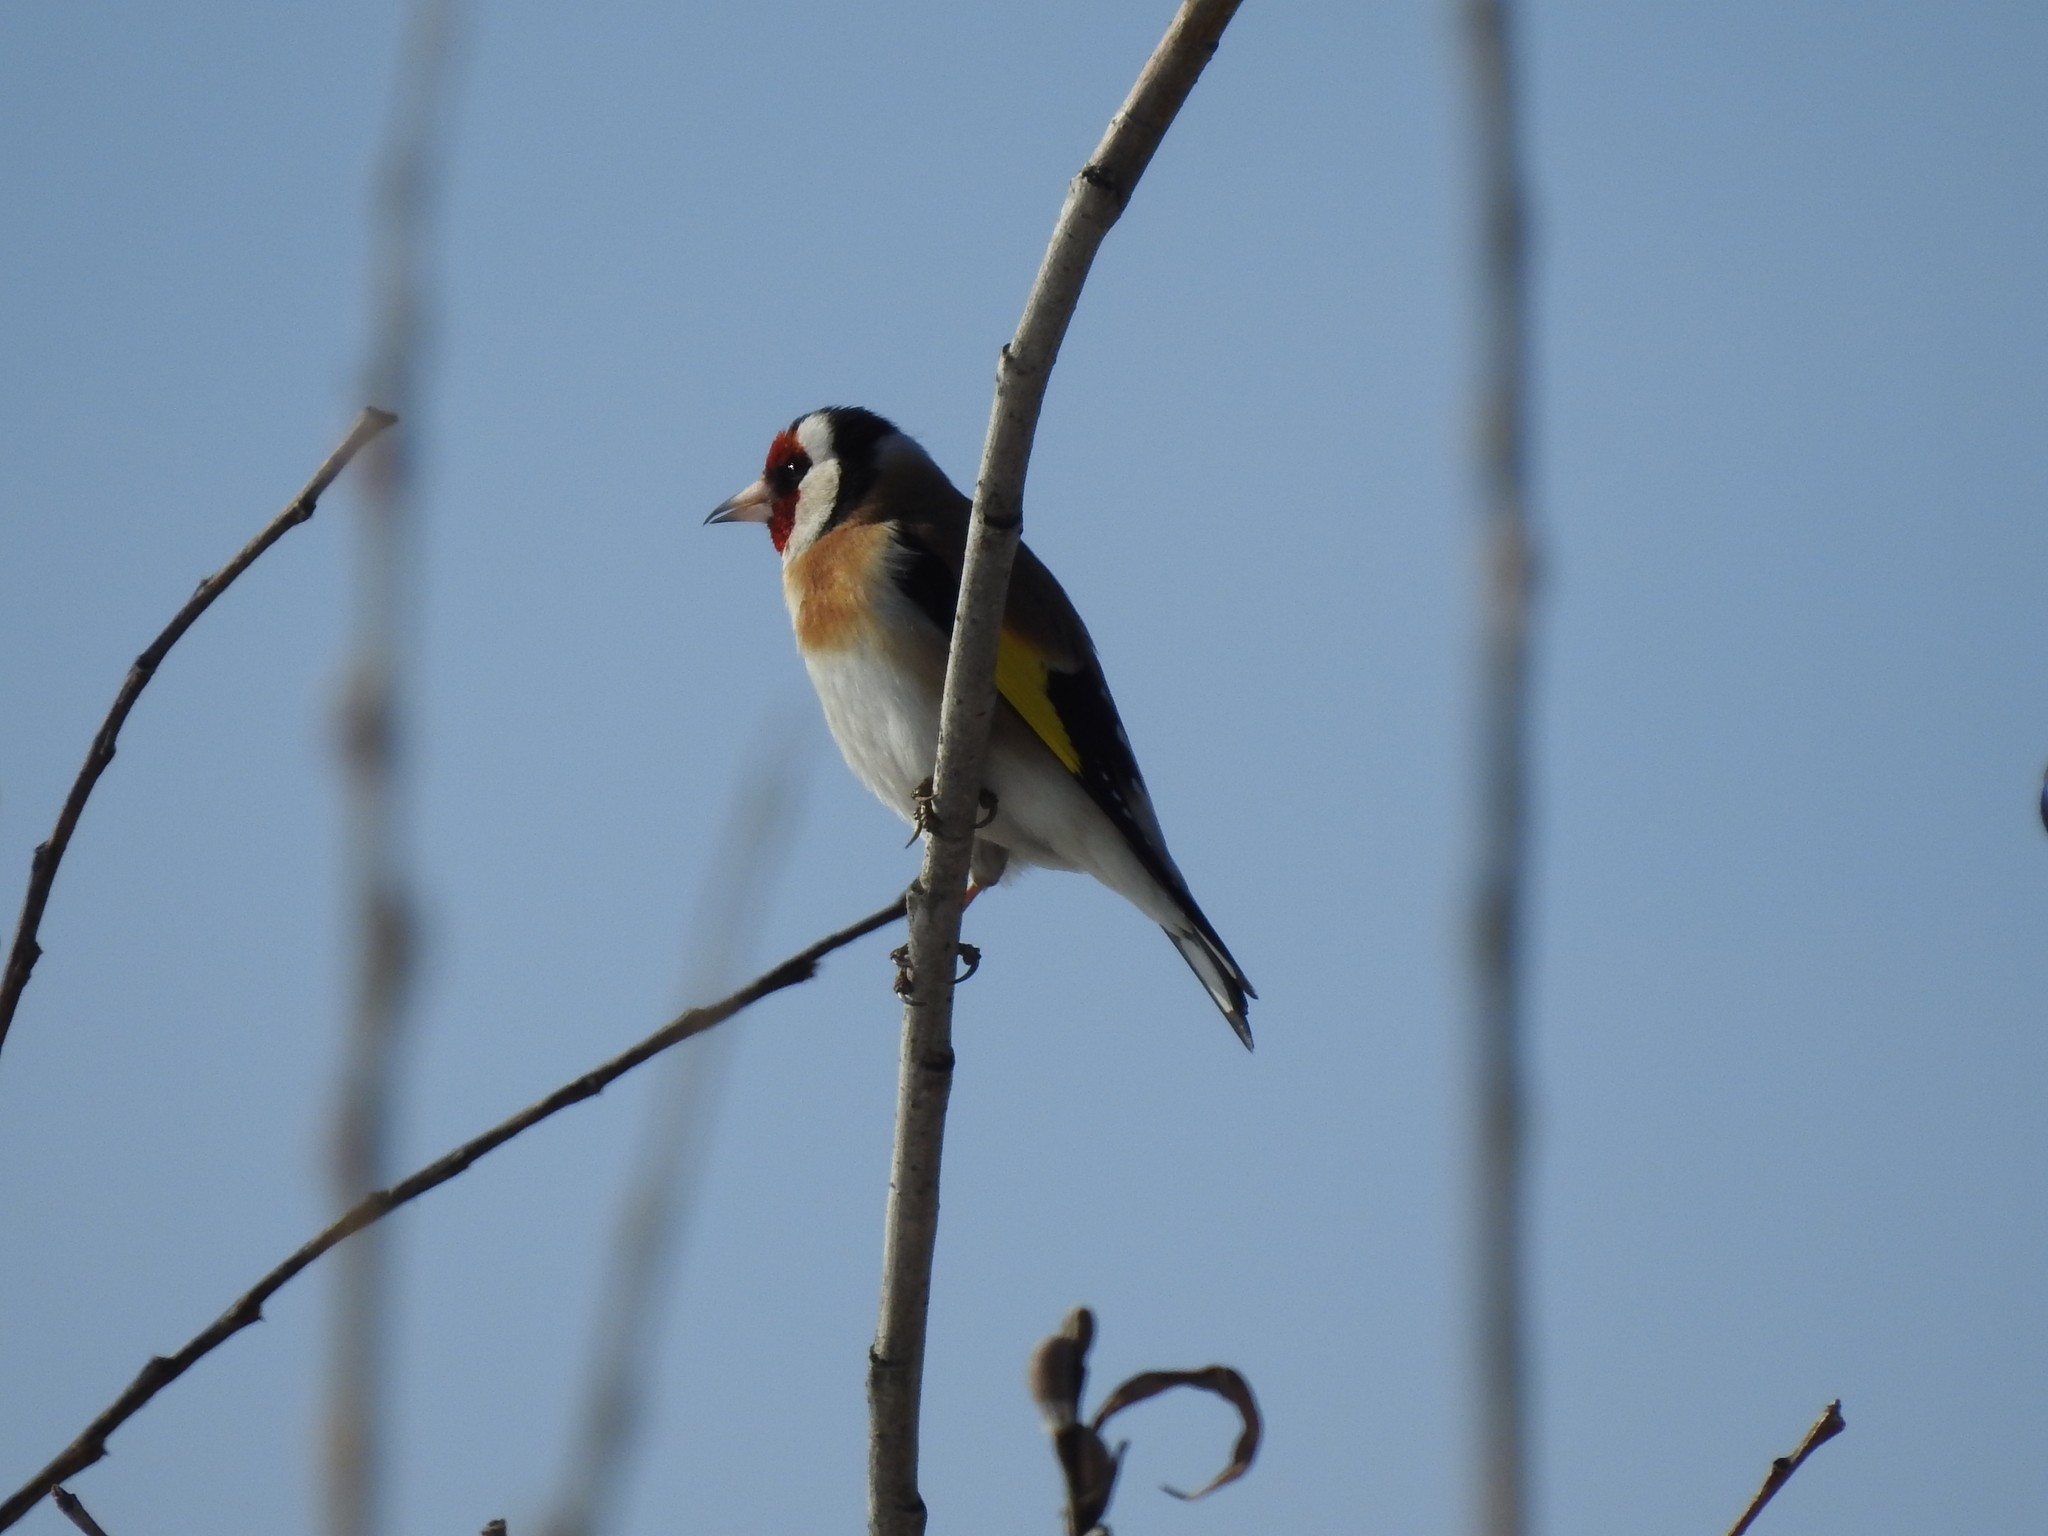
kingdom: Animalia
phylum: Chordata
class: Aves
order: Passeriformes
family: Fringillidae
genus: Carduelis
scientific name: Carduelis carduelis
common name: European goldfinch
